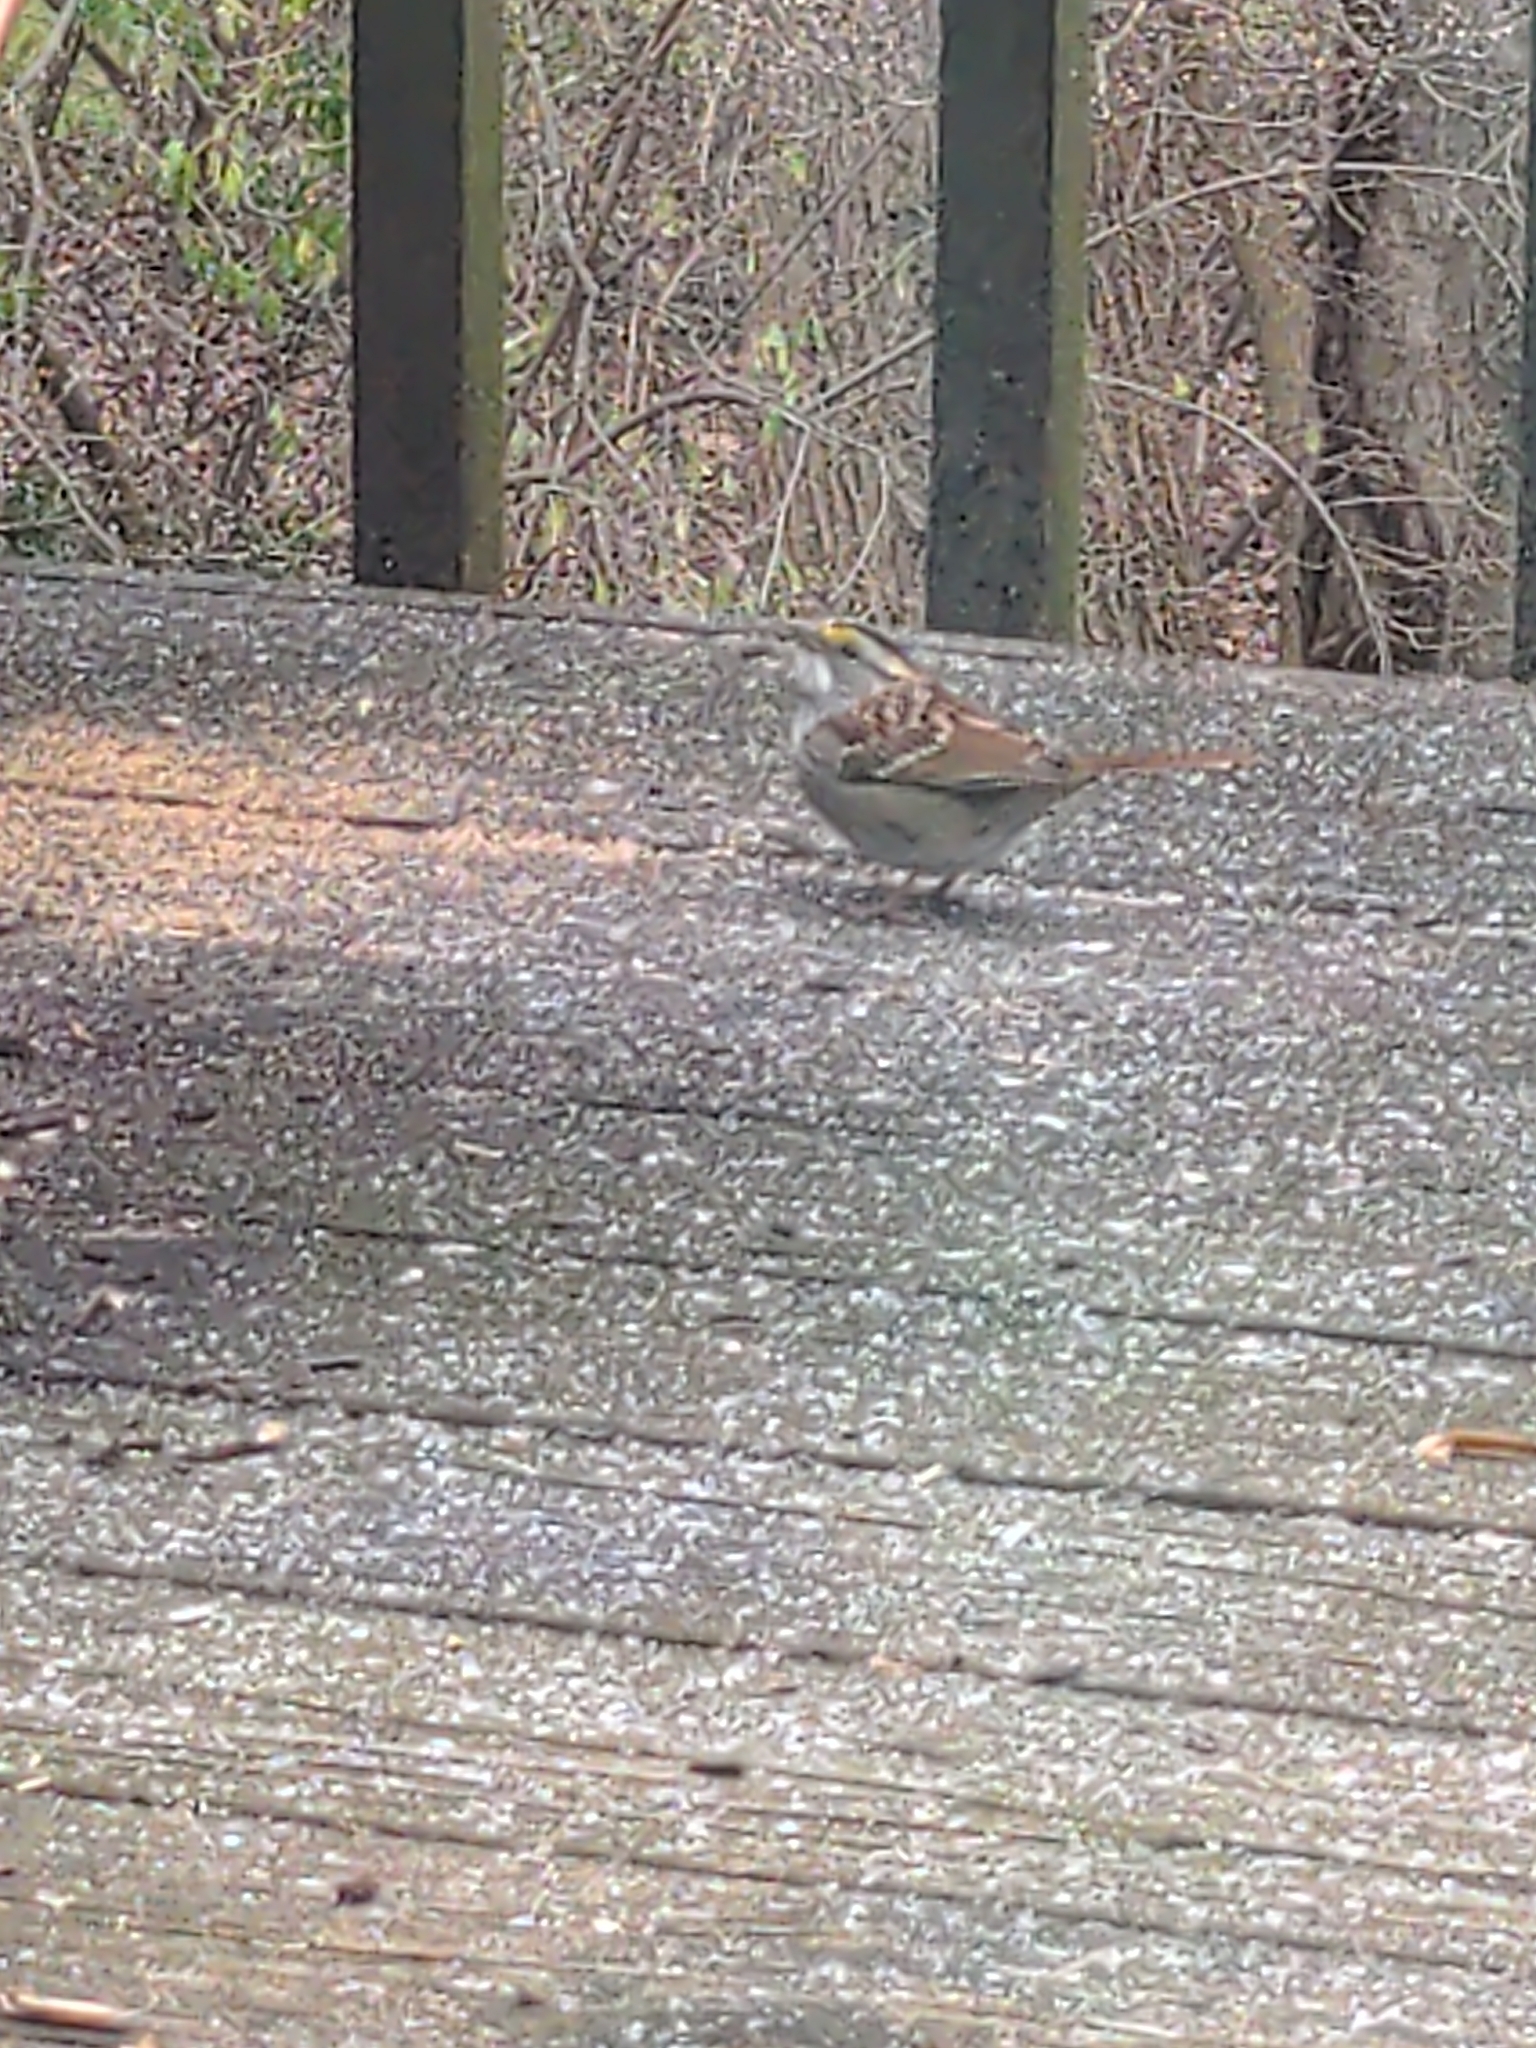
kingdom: Animalia
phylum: Chordata
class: Aves
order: Passeriformes
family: Passerellidae
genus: Zonotrichia
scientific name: Zonotrichia albicollis
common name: White-throated sparrow
